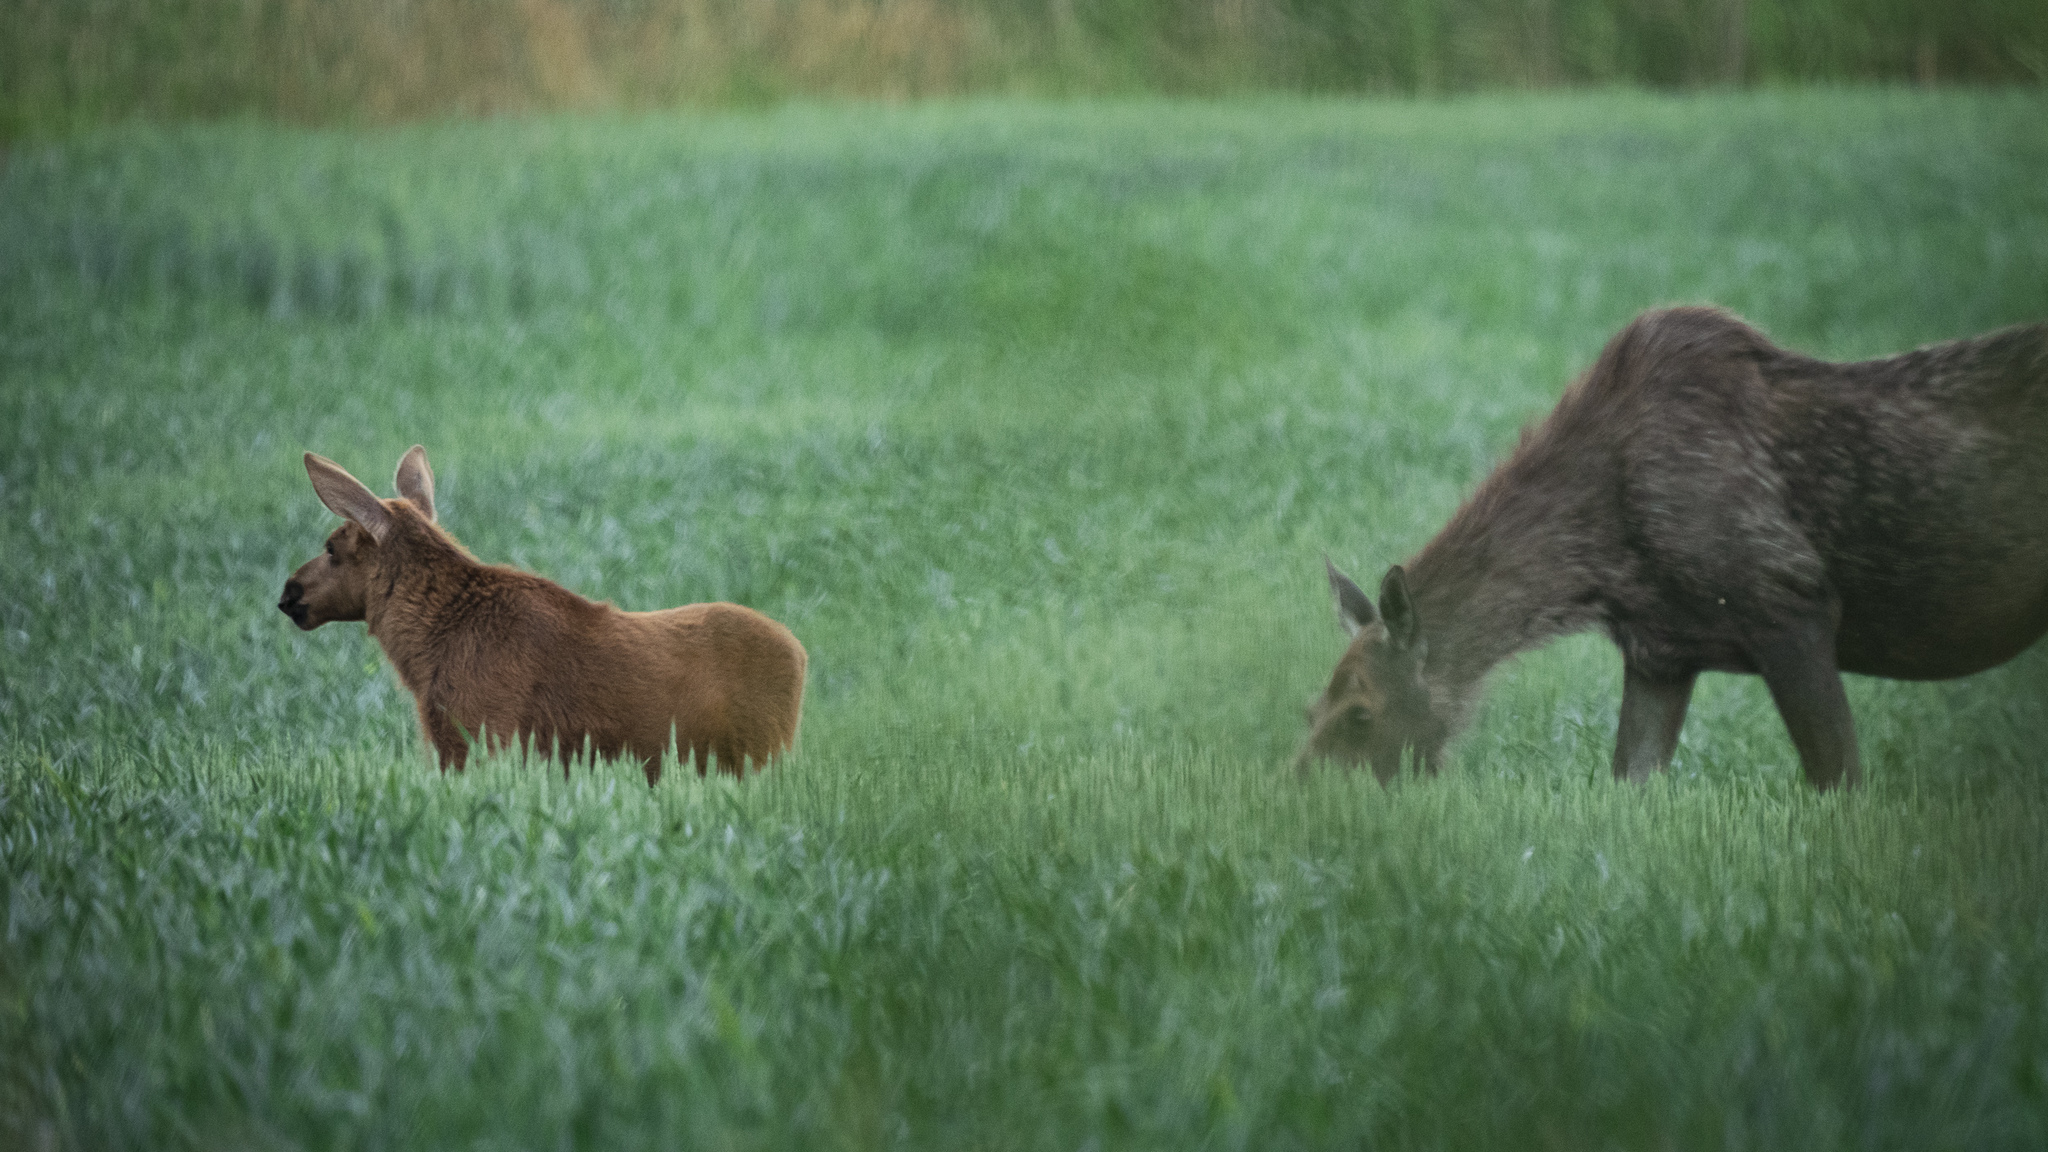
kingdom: Animalia
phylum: Chordata
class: Mammalia
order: Artiodactyla
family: Cervidae
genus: Alces
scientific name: Alces alces
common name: Moose
